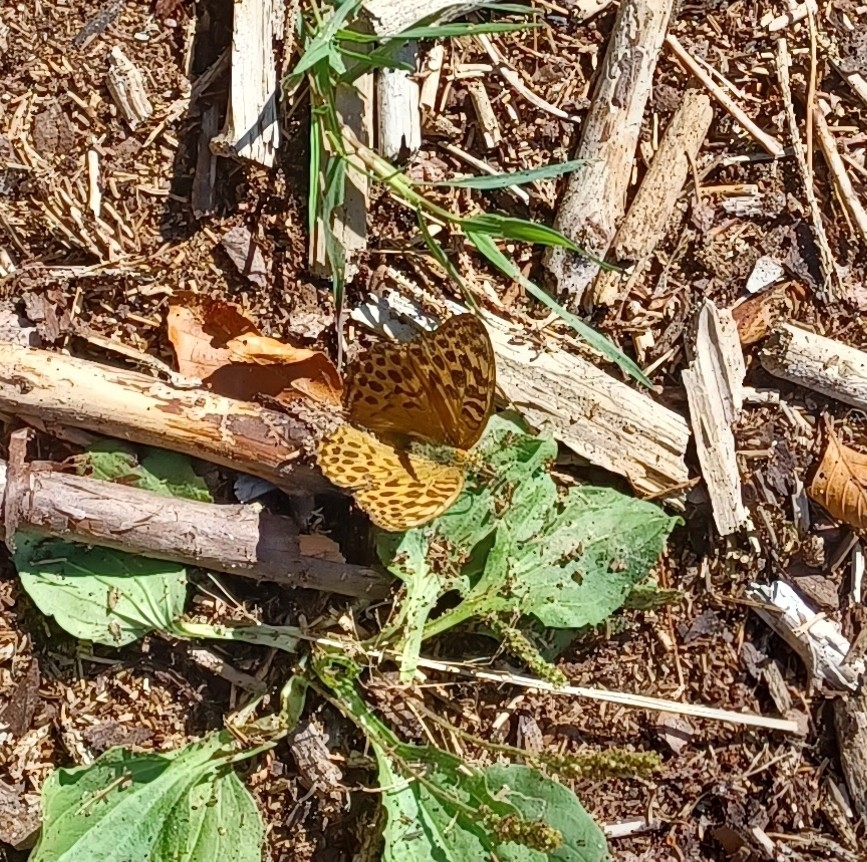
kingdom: Animalia
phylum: Arthropoda
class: Insecta
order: Lepidoptera
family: Nymphalidae
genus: Argynnis
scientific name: Argynnis paphia
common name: Silver-washed fritillary
